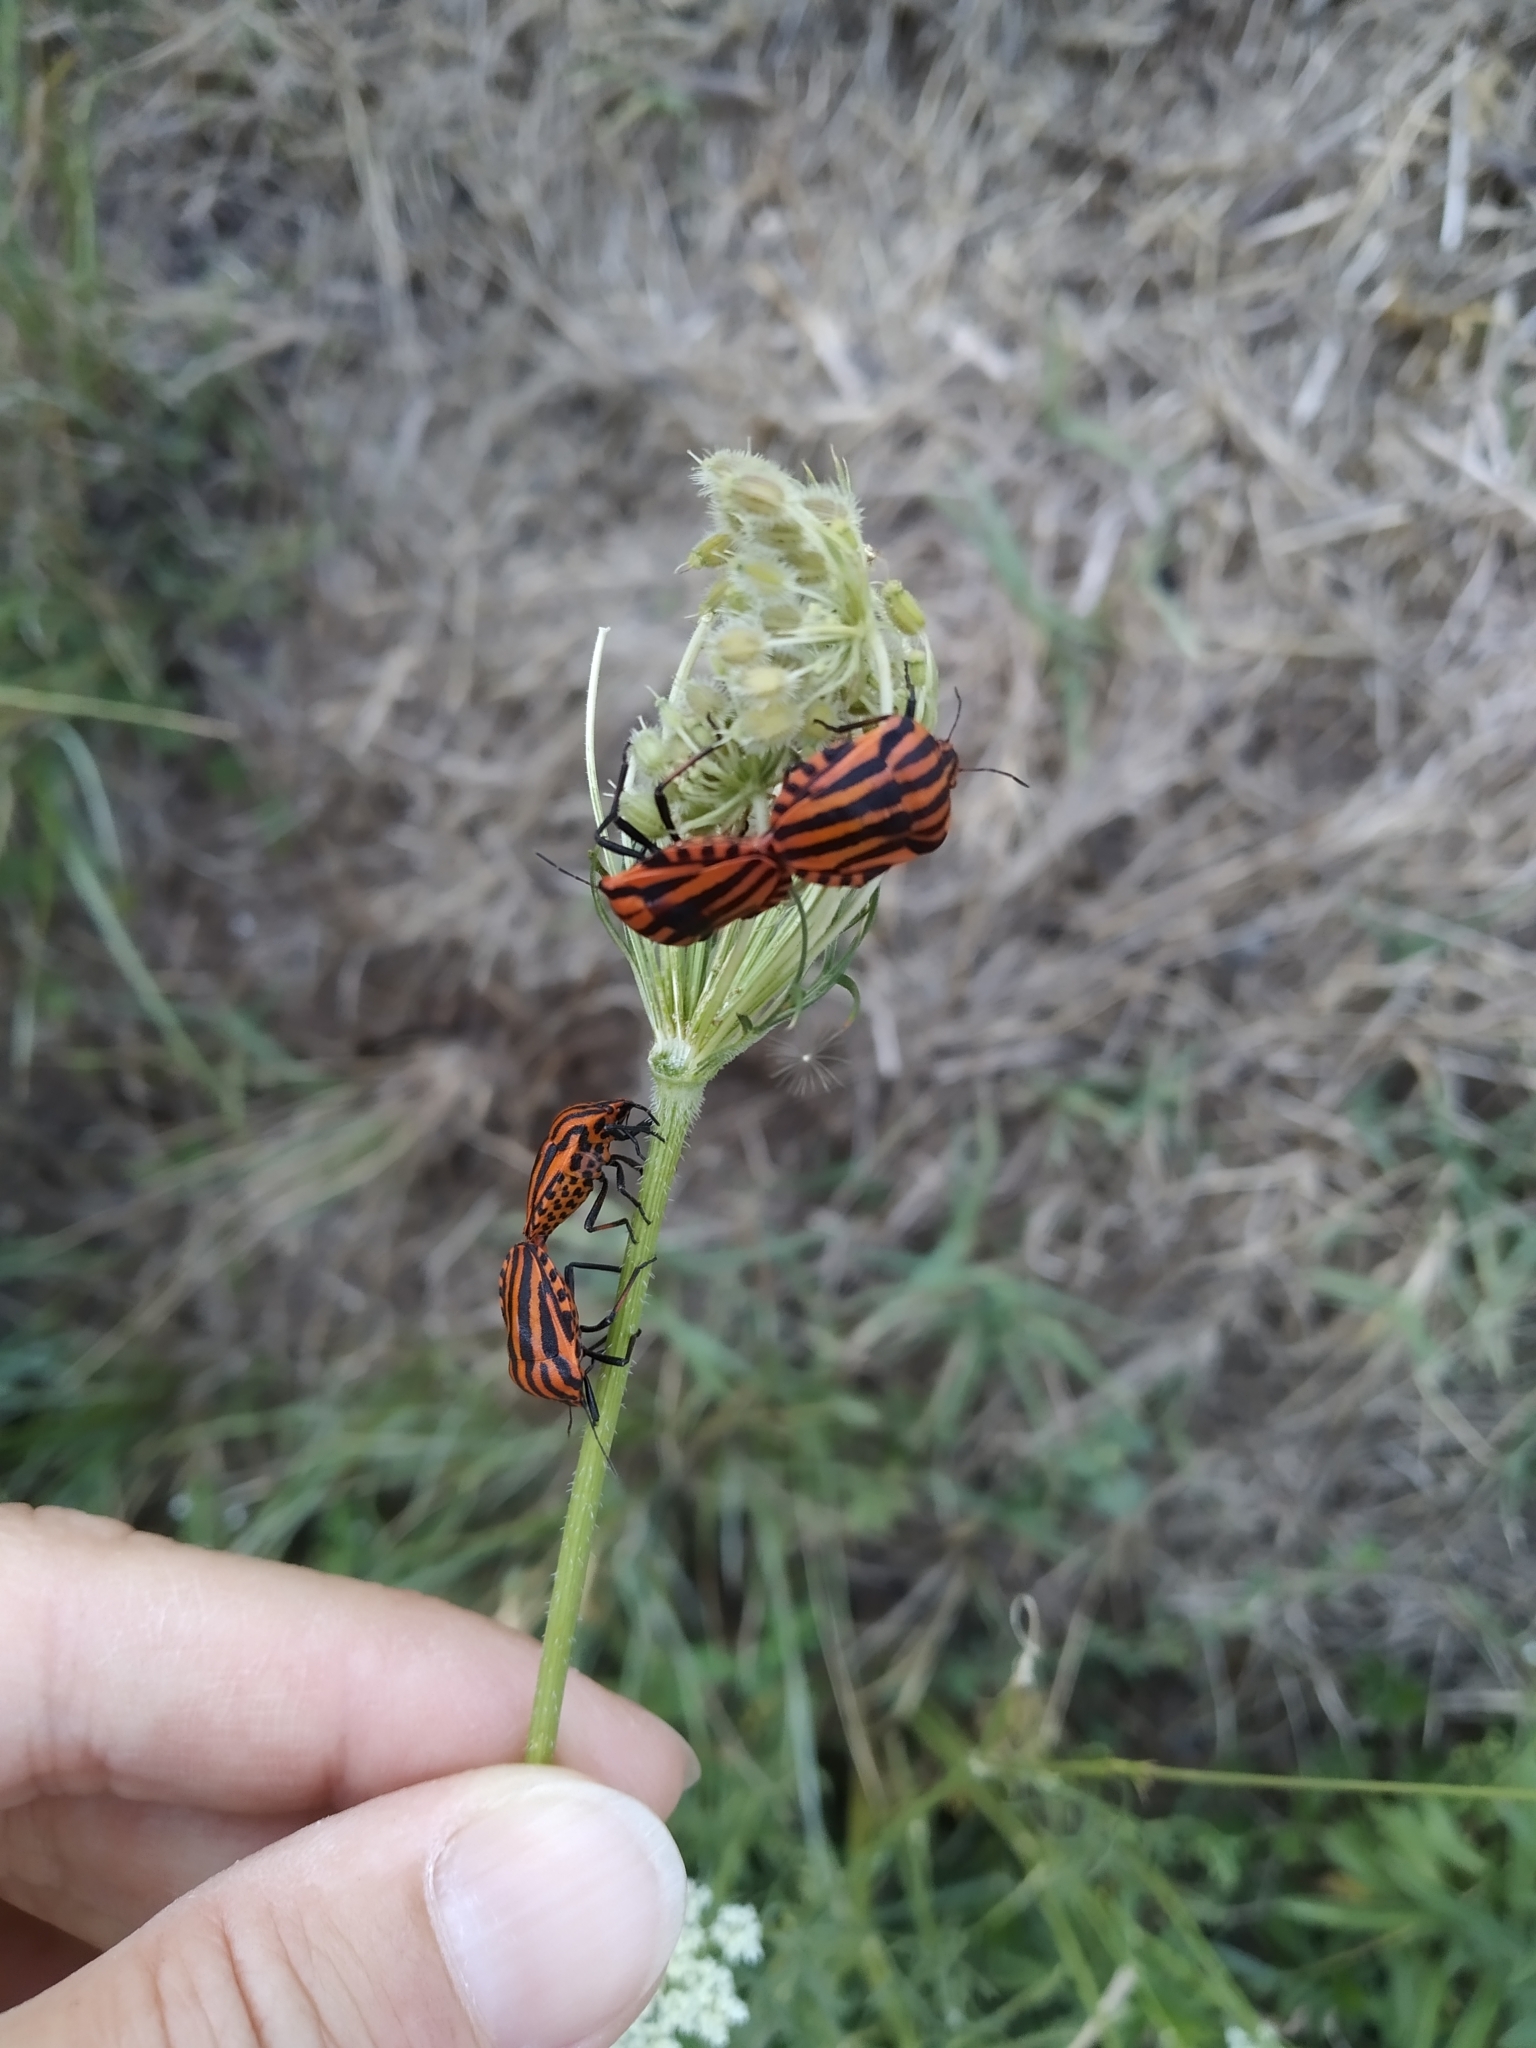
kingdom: Animalia
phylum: Arthropoda
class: Insecta
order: Hemiptera
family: Pentatomidae
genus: Graphosoma
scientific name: Graphosoma italicum
